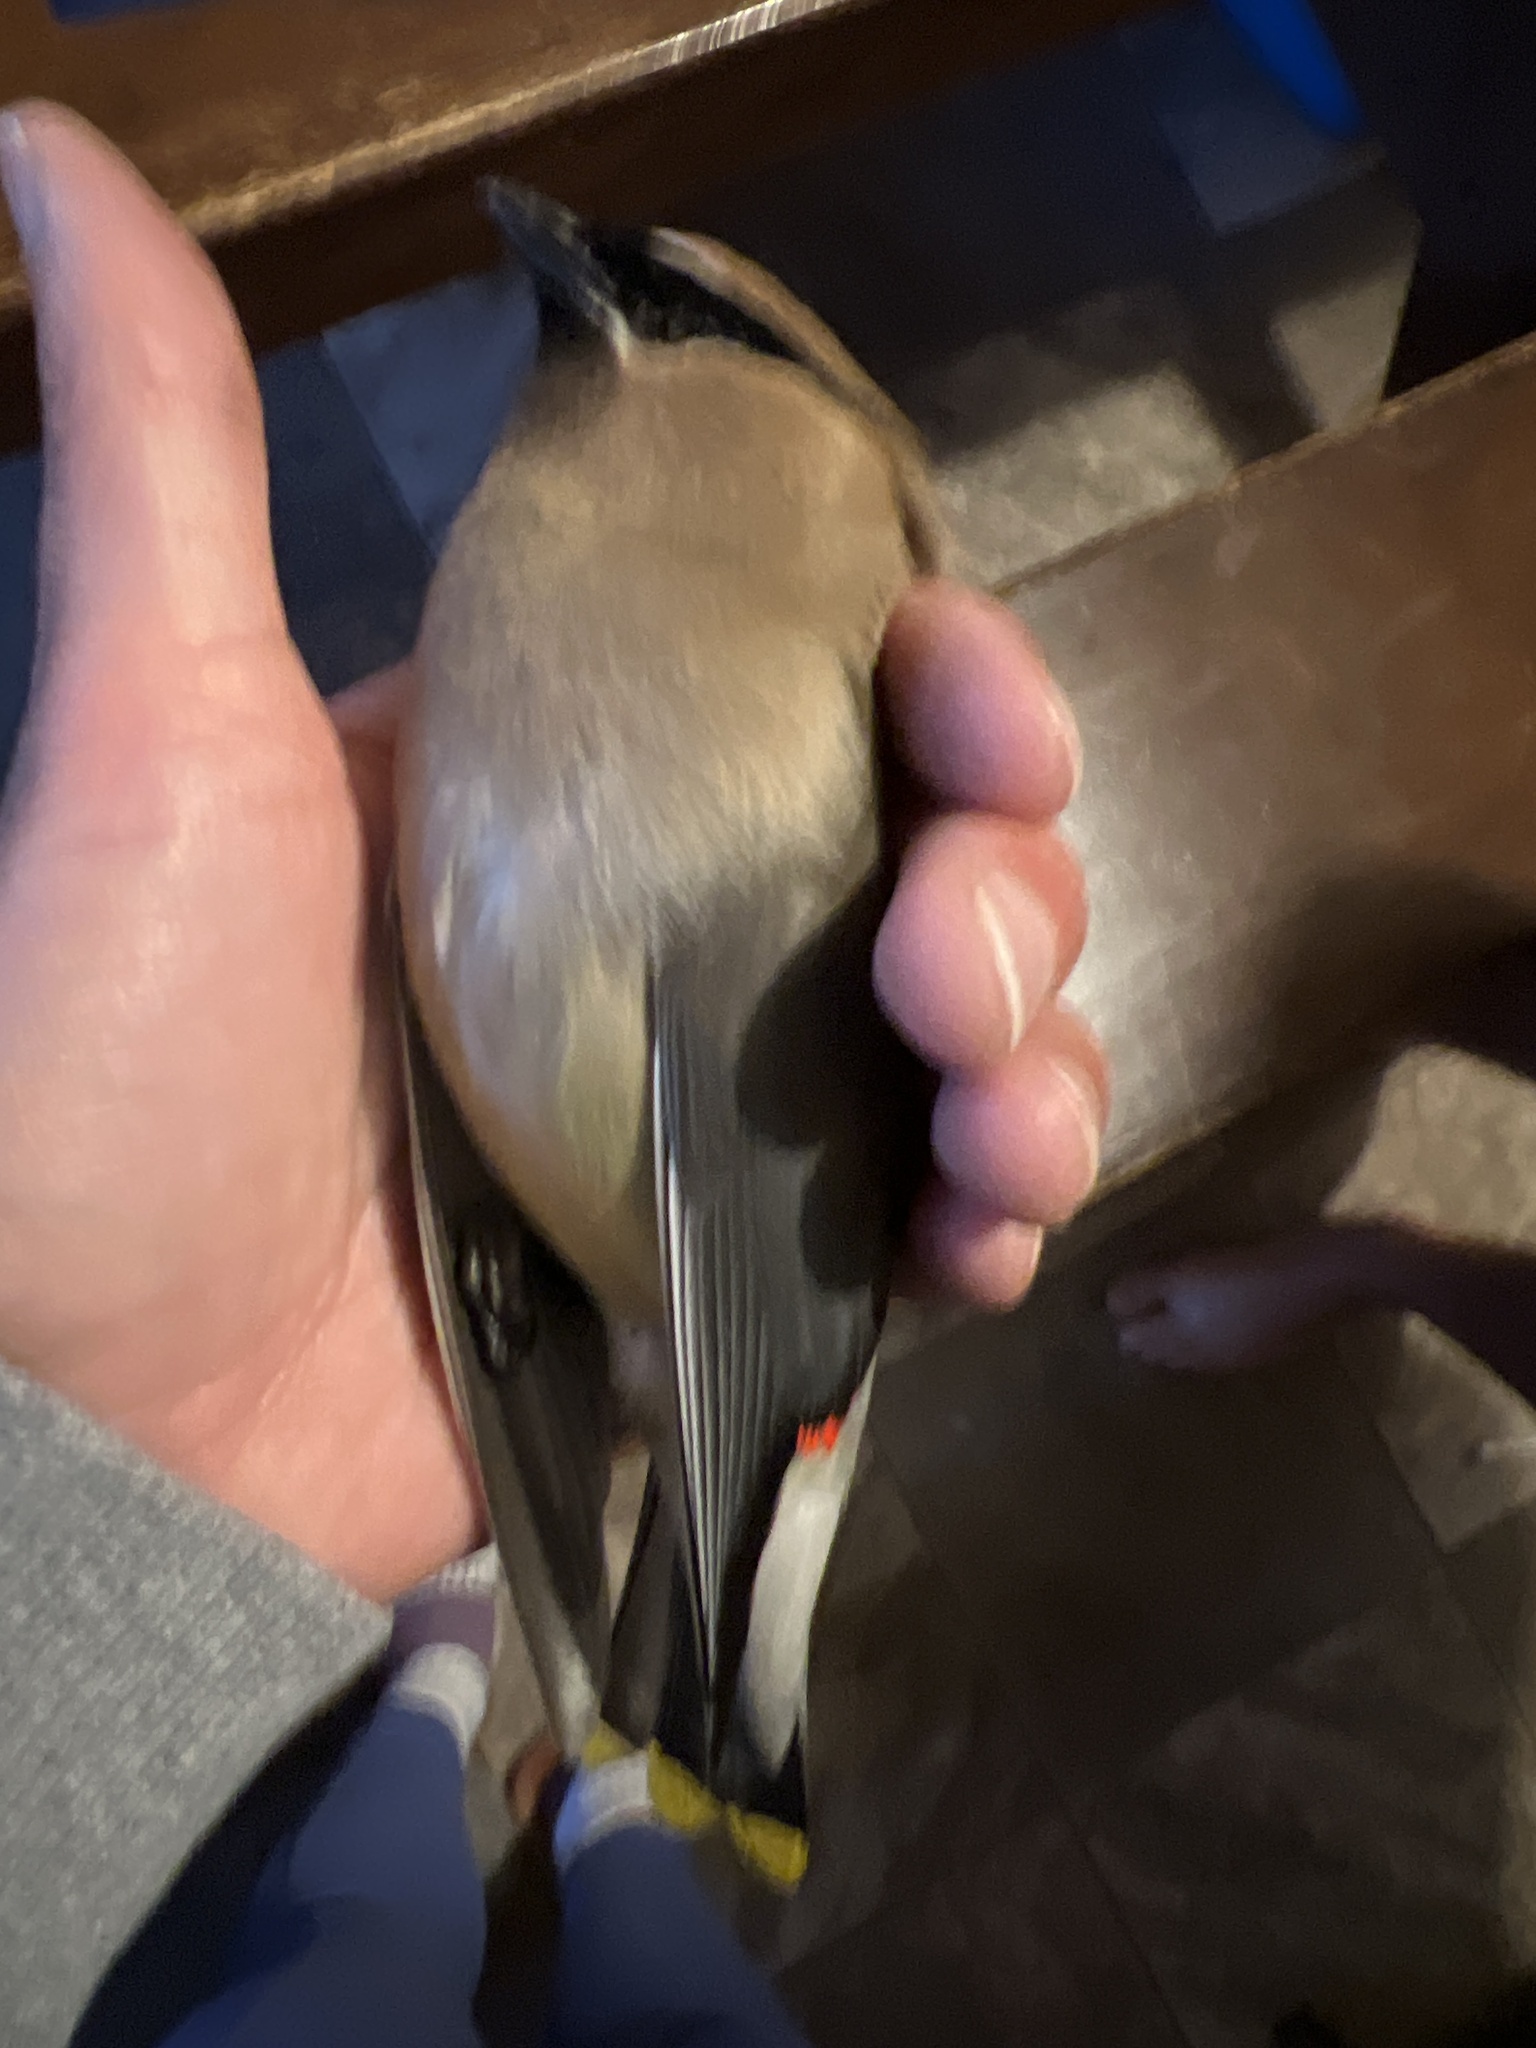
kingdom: Animalia
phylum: Chordata
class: Aves
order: Passeriformes
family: Bombycillidae
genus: Bombycilla
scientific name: Bombycilla cedrorum
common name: Cedar waxwing
